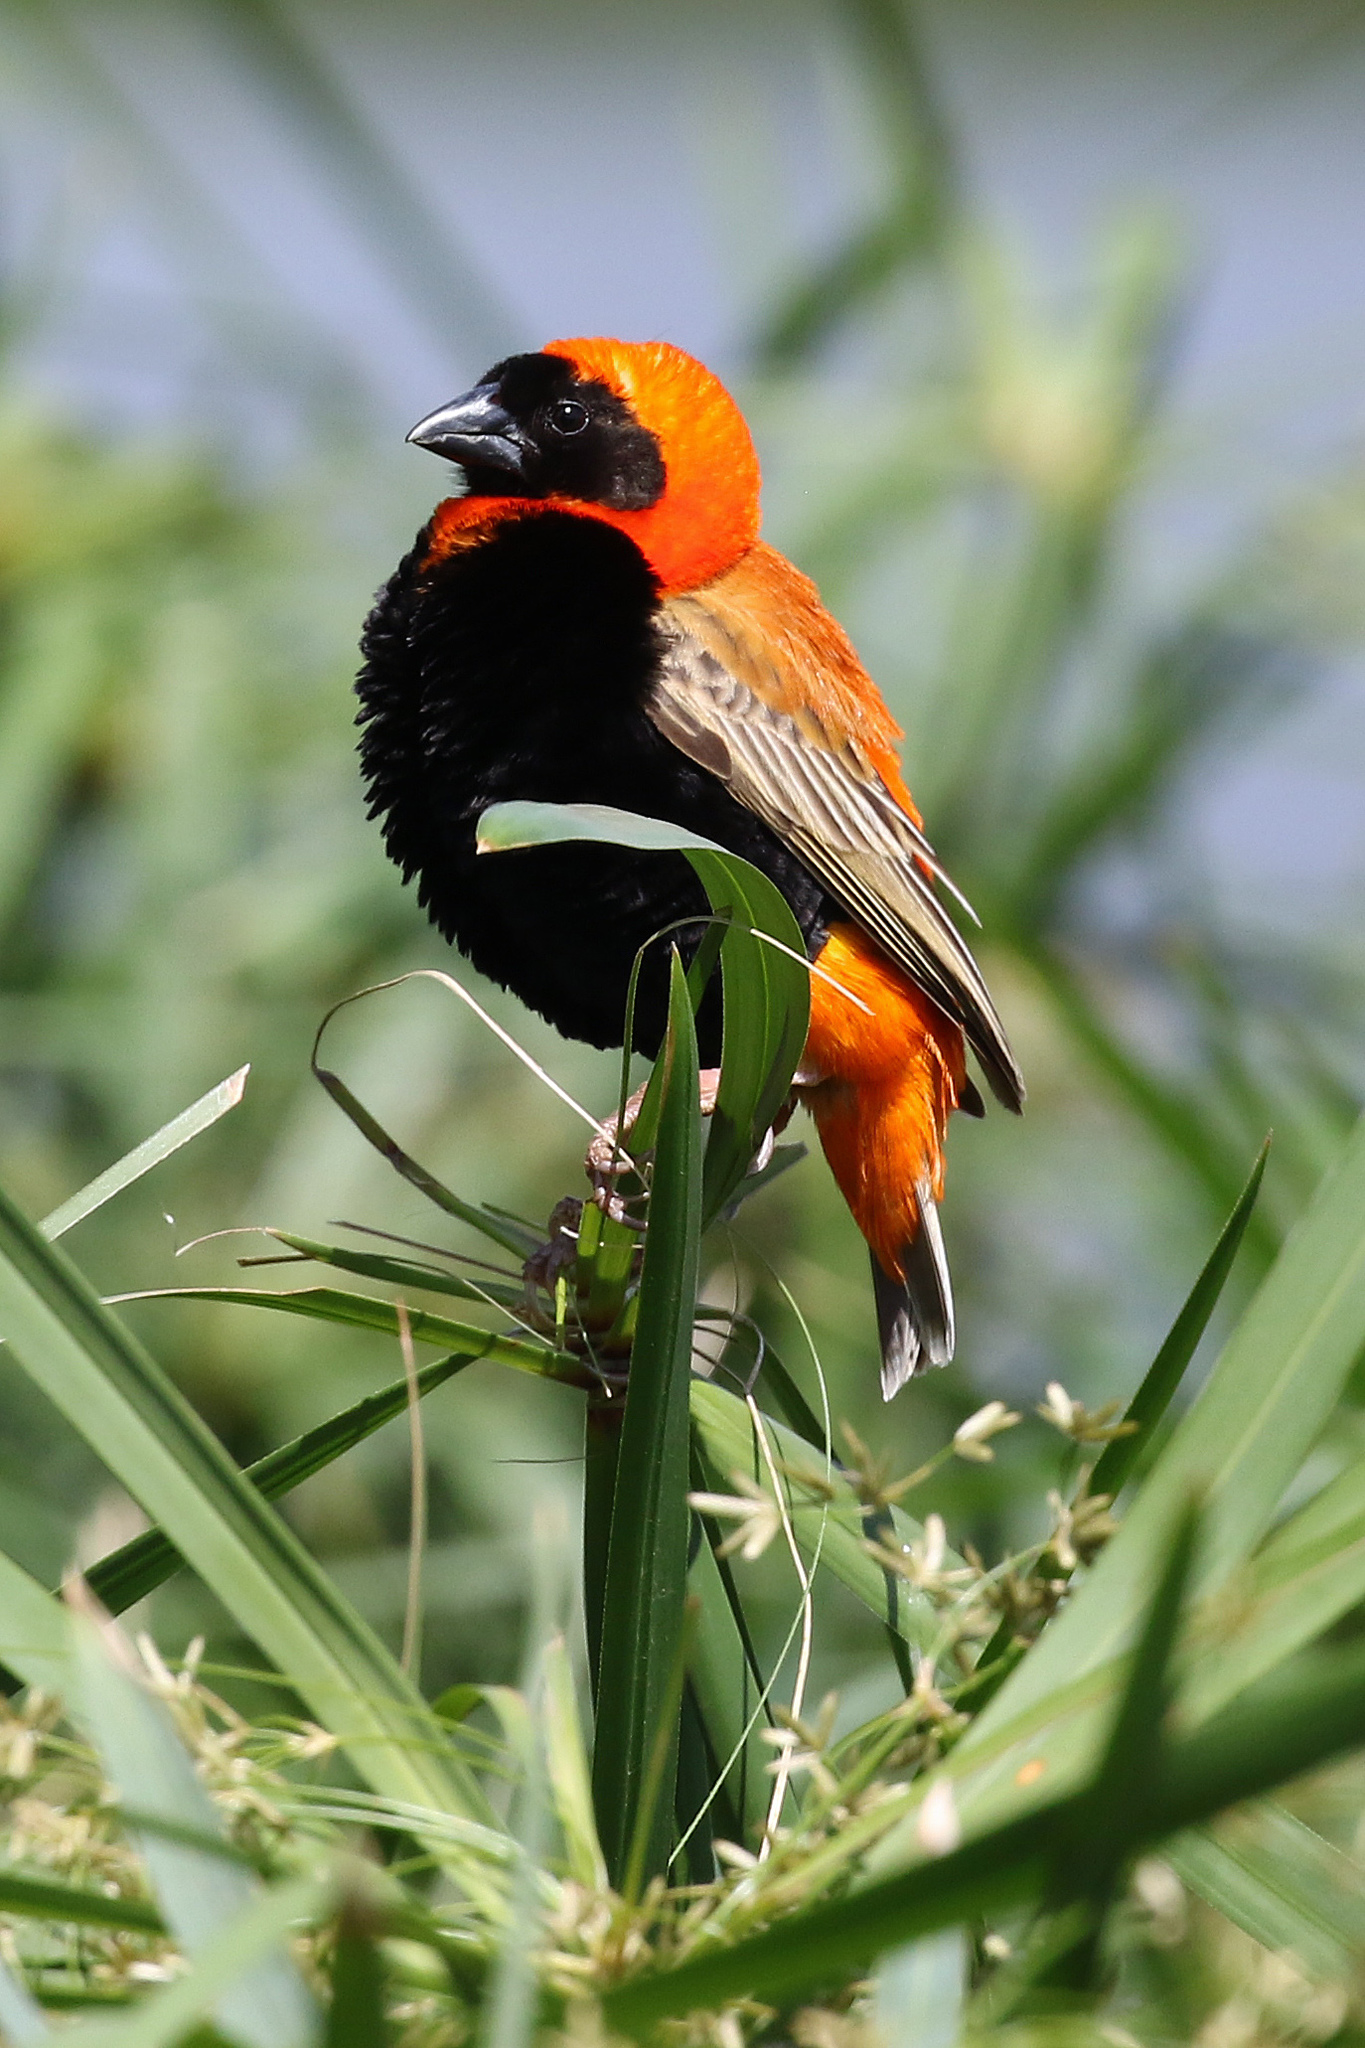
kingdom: Animalia
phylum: Chordata
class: Aves
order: Passeriformes
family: Ploceidae
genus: Euplectes
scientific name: Euplectes orix
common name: Southern red bishop
